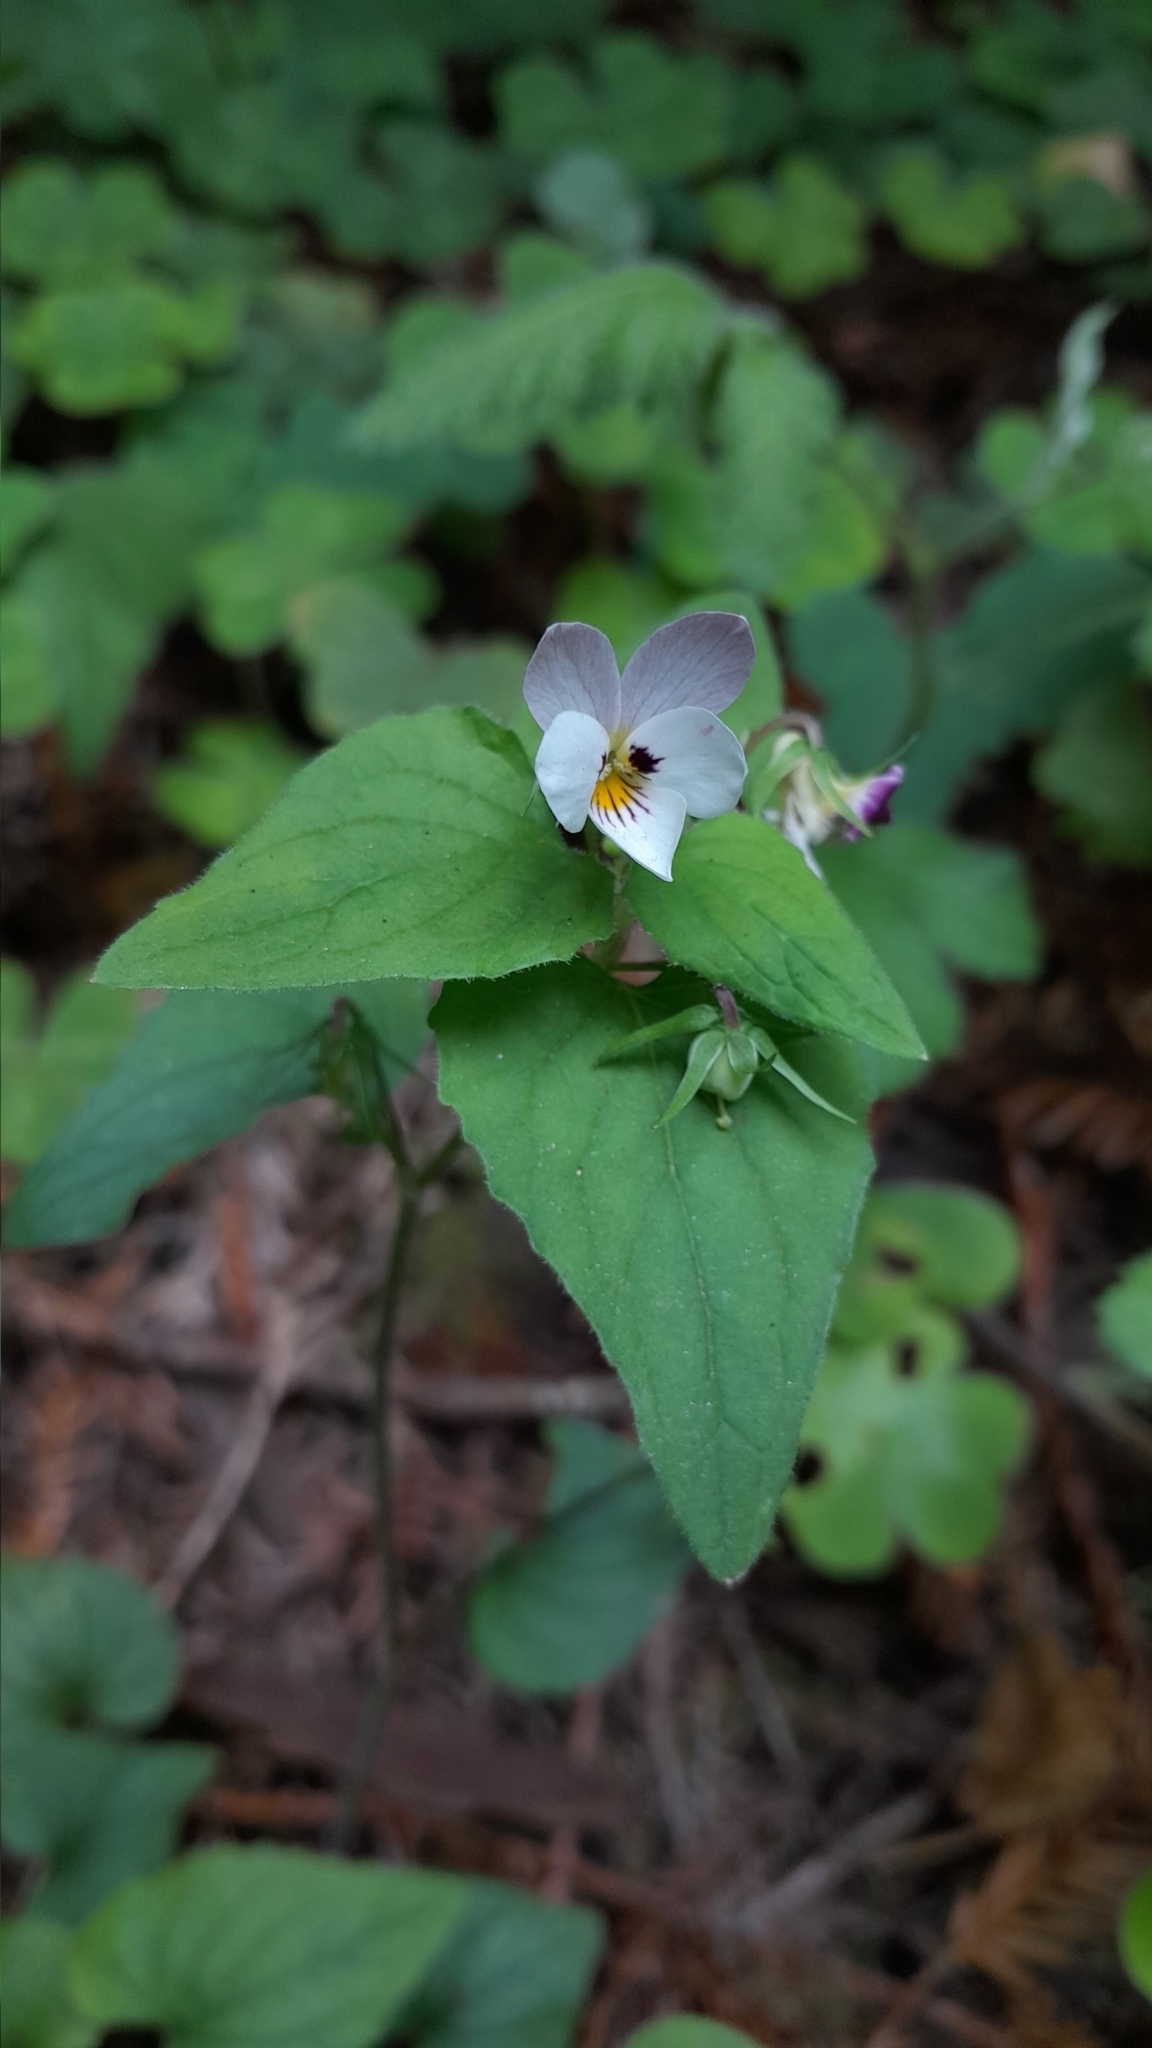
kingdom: Plantae
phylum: Tracheophyta
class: Magnoliopsida
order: Malpighiales
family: Violaceae
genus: Viola
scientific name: Viola ocellata
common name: Western heart's ease
